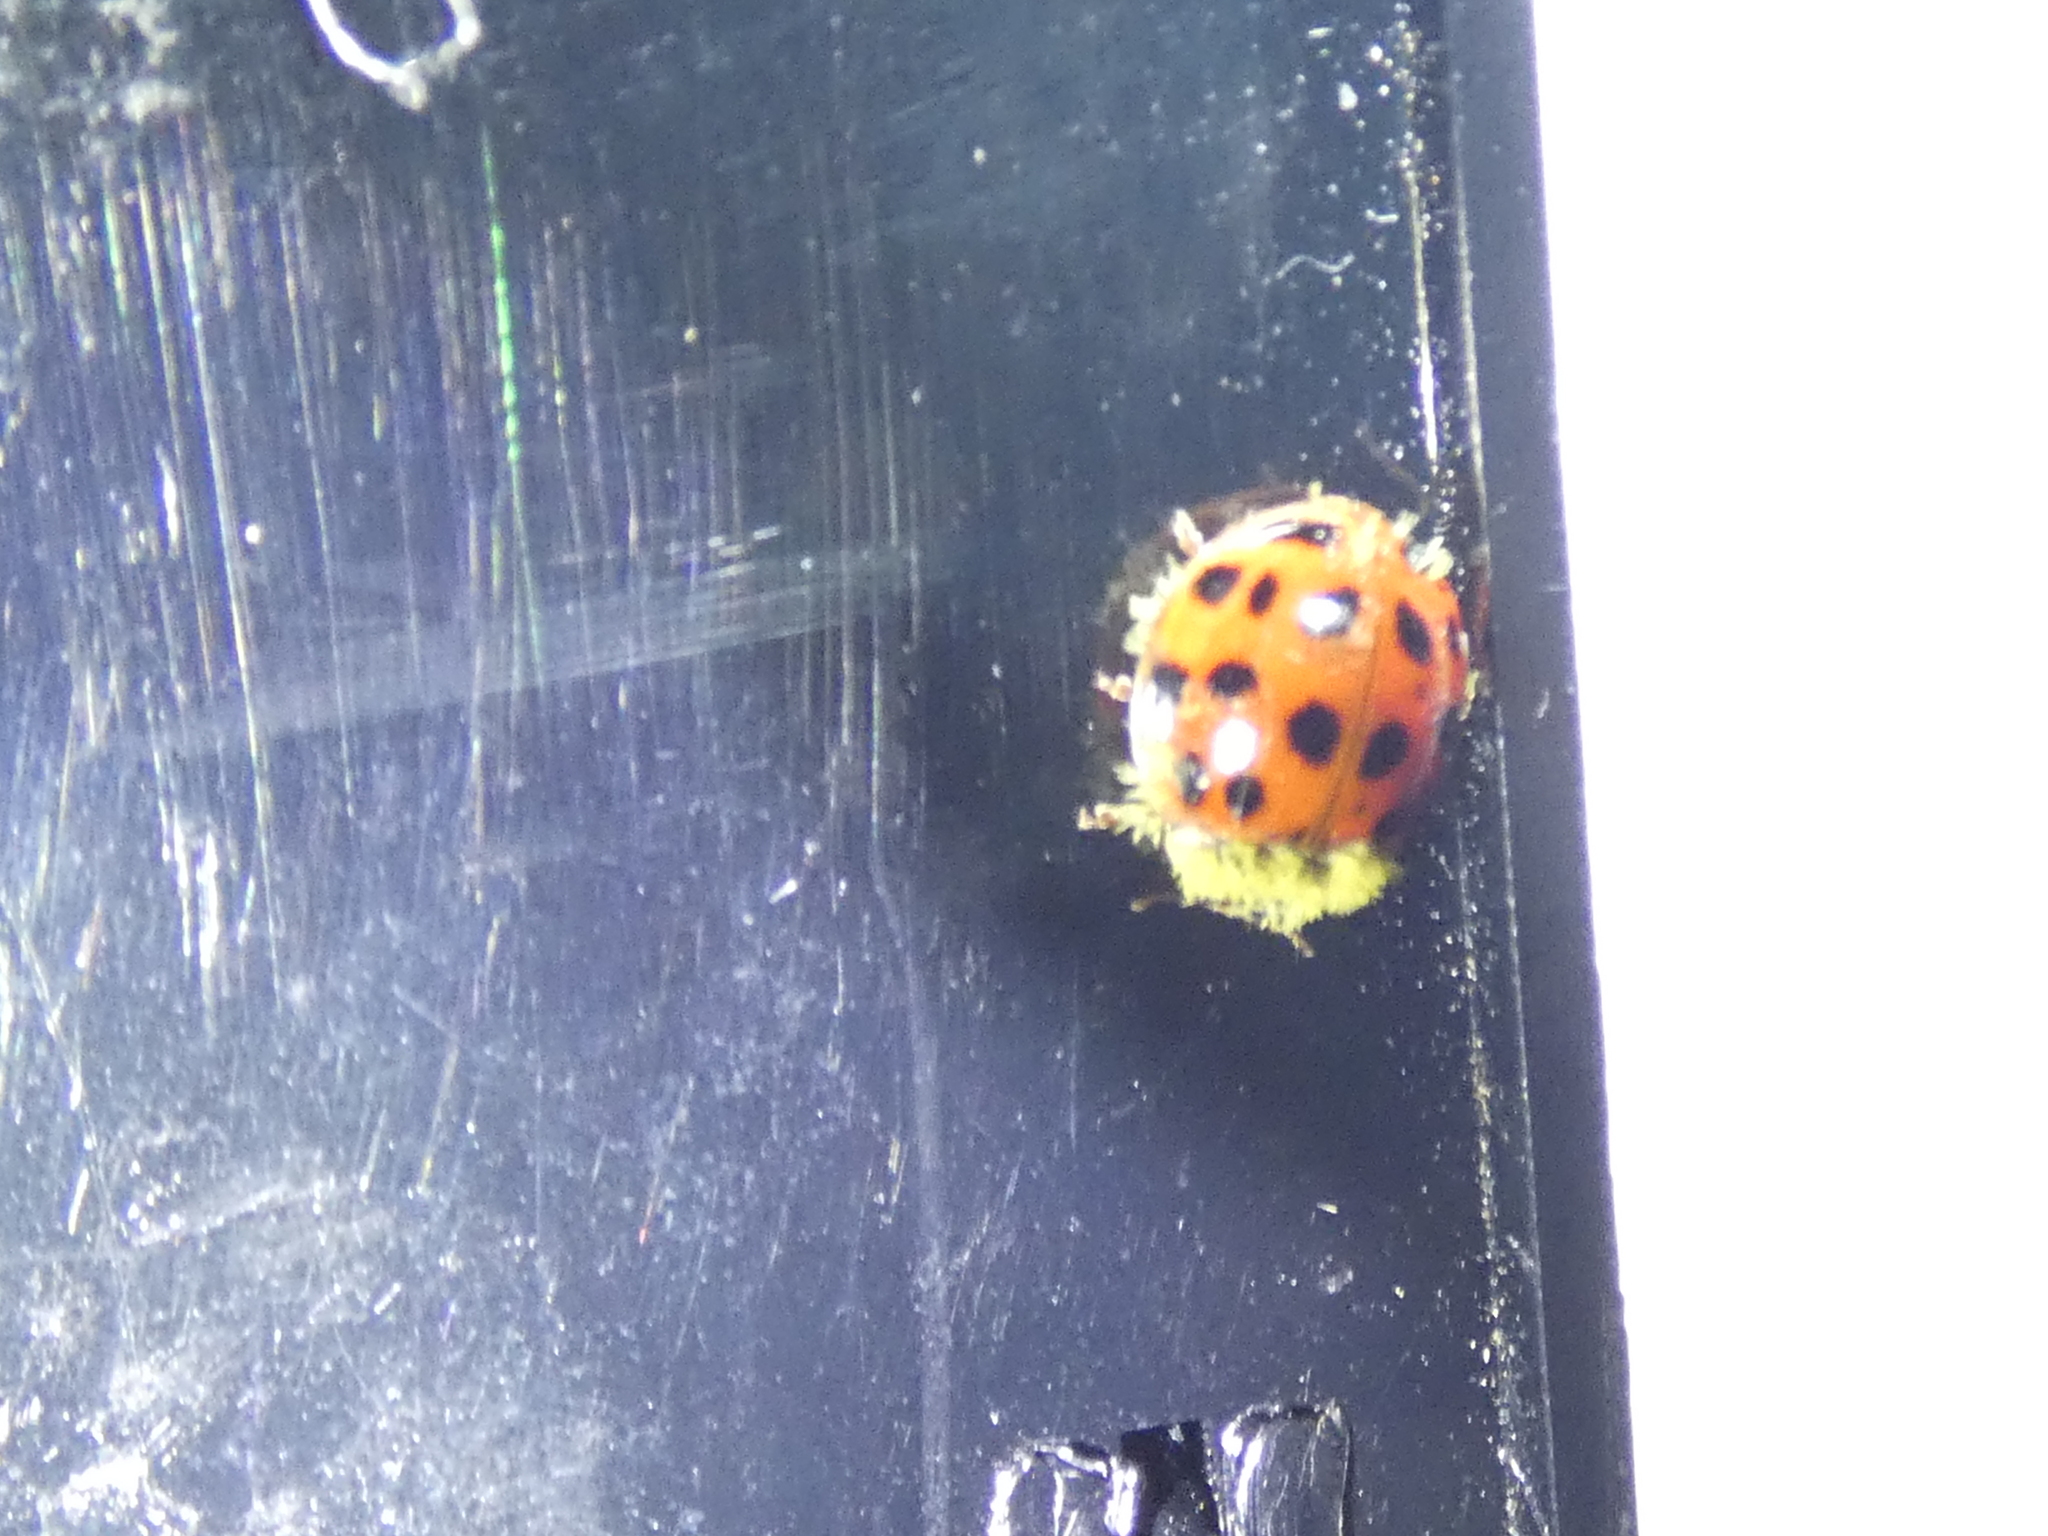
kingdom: Fungi
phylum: Ascomycota
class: Laboulbeniomycetes
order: Laboulbeniales
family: Laboulbeniaceae
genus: Hesperomyces
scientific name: Hesperomyces harmoniae
